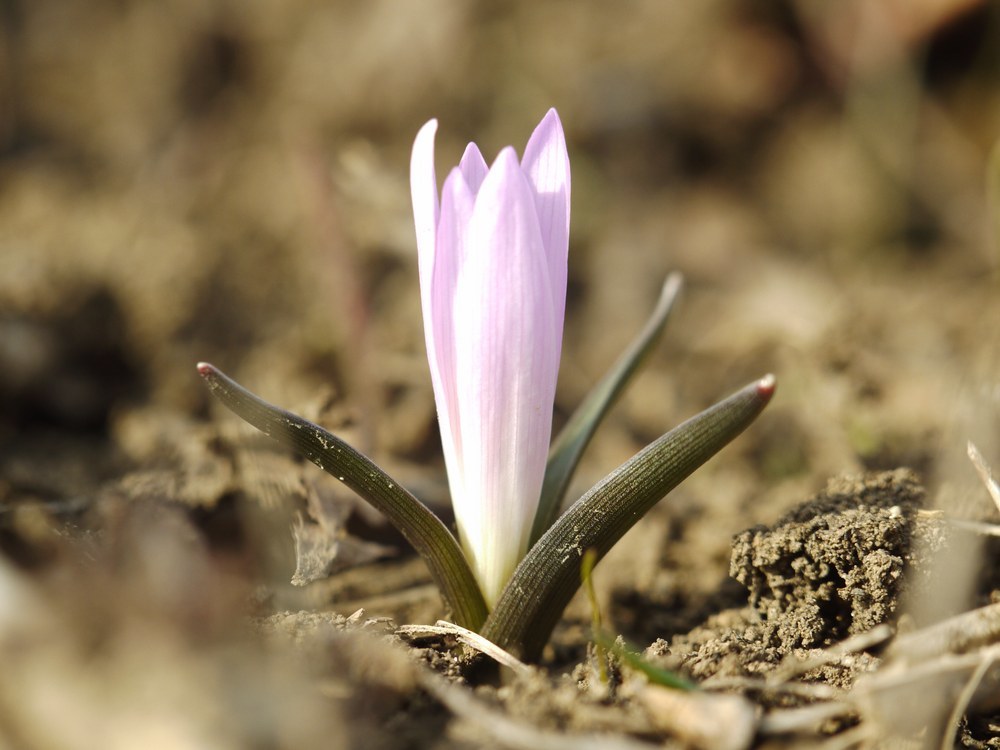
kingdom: Plantae
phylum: Tracheophyta
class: Liliopsida
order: Liliales
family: Colchicaceae
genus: Colchicum
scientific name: Colchicum bulbocodium
